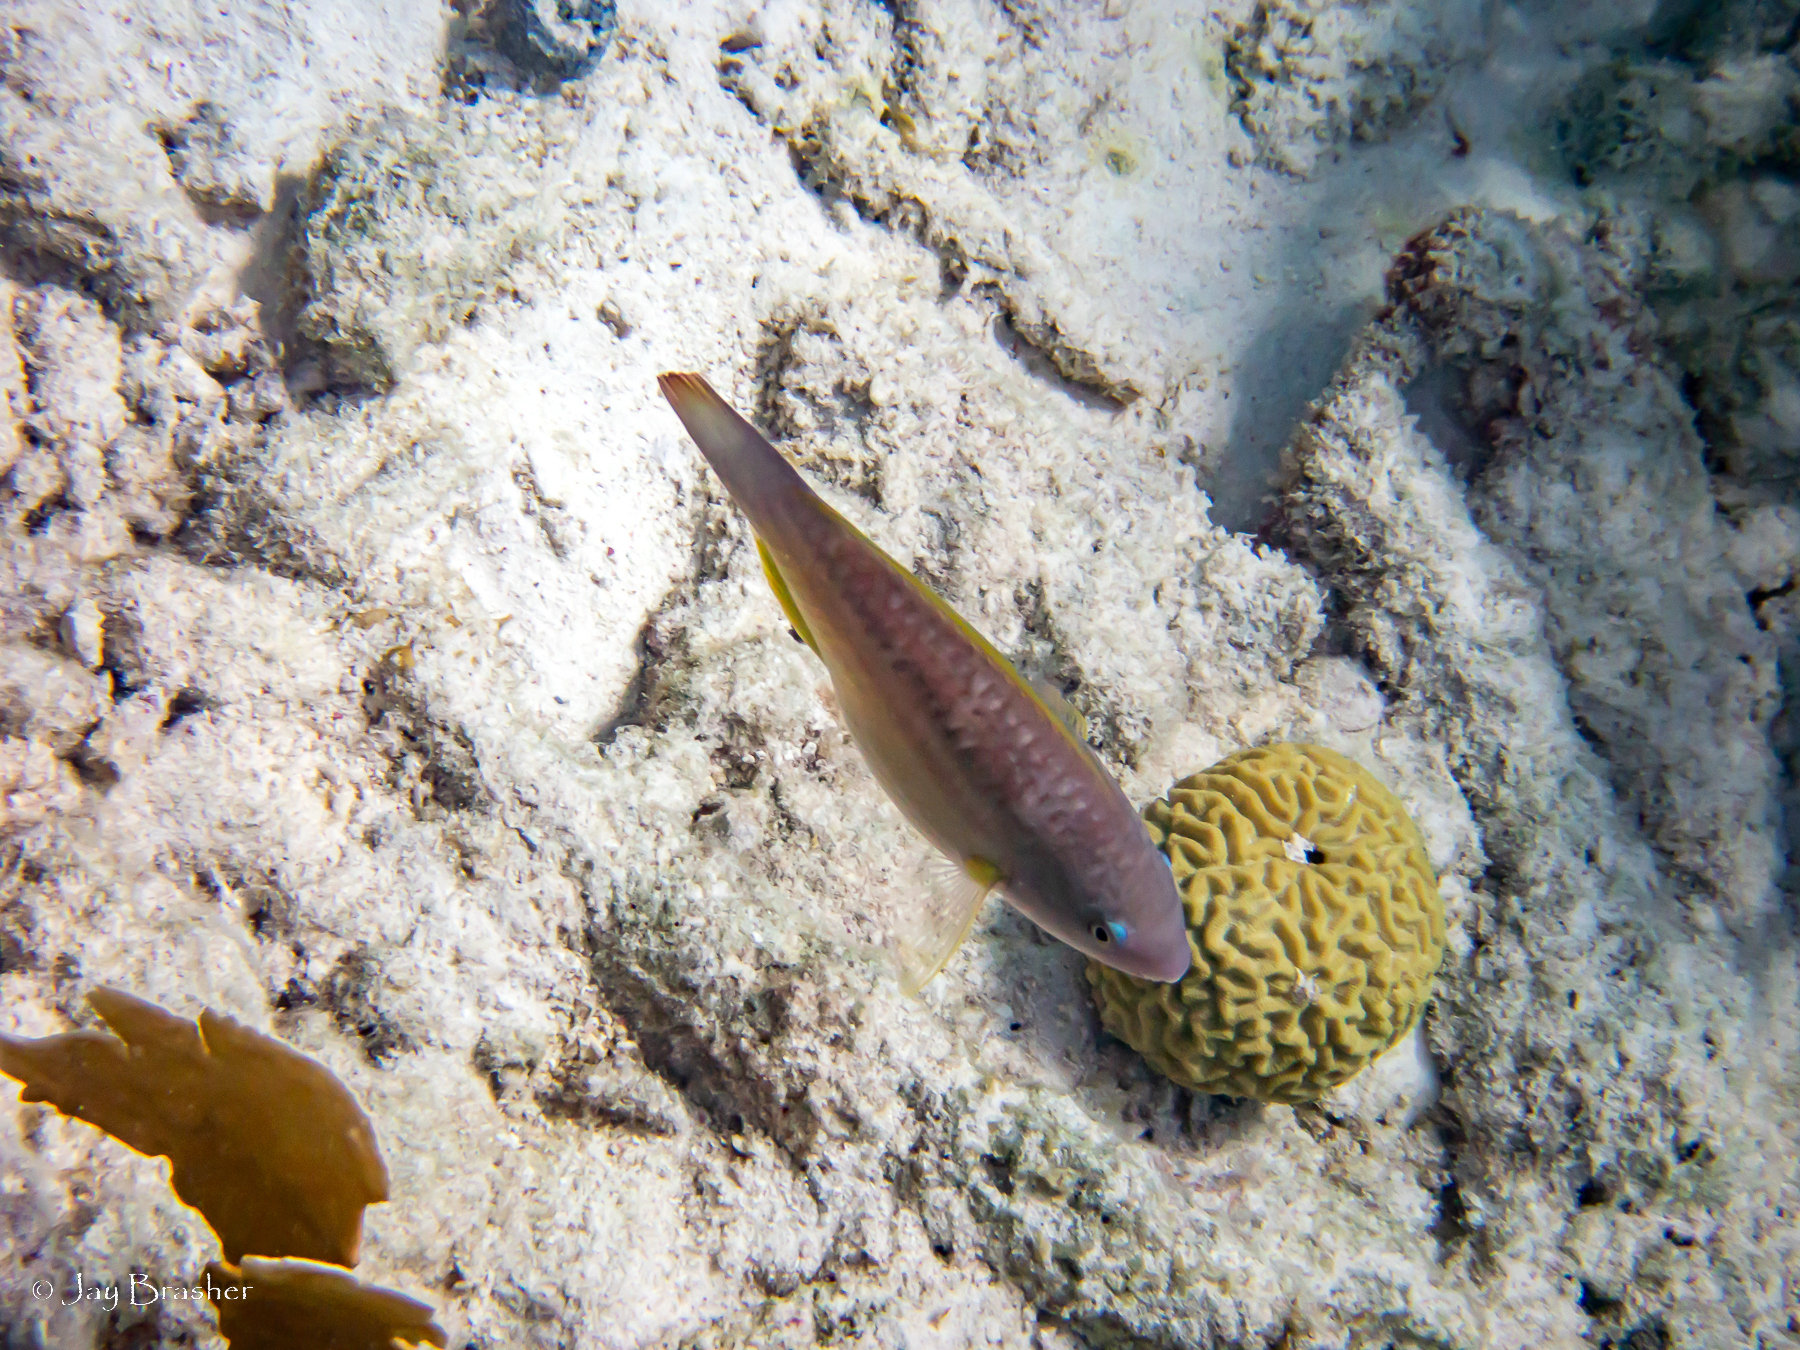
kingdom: Animalia
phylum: Chordata
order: Perciformes
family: Scaridae
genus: Scarus
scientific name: Scarus taeniopterus
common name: Princess parrotfish
